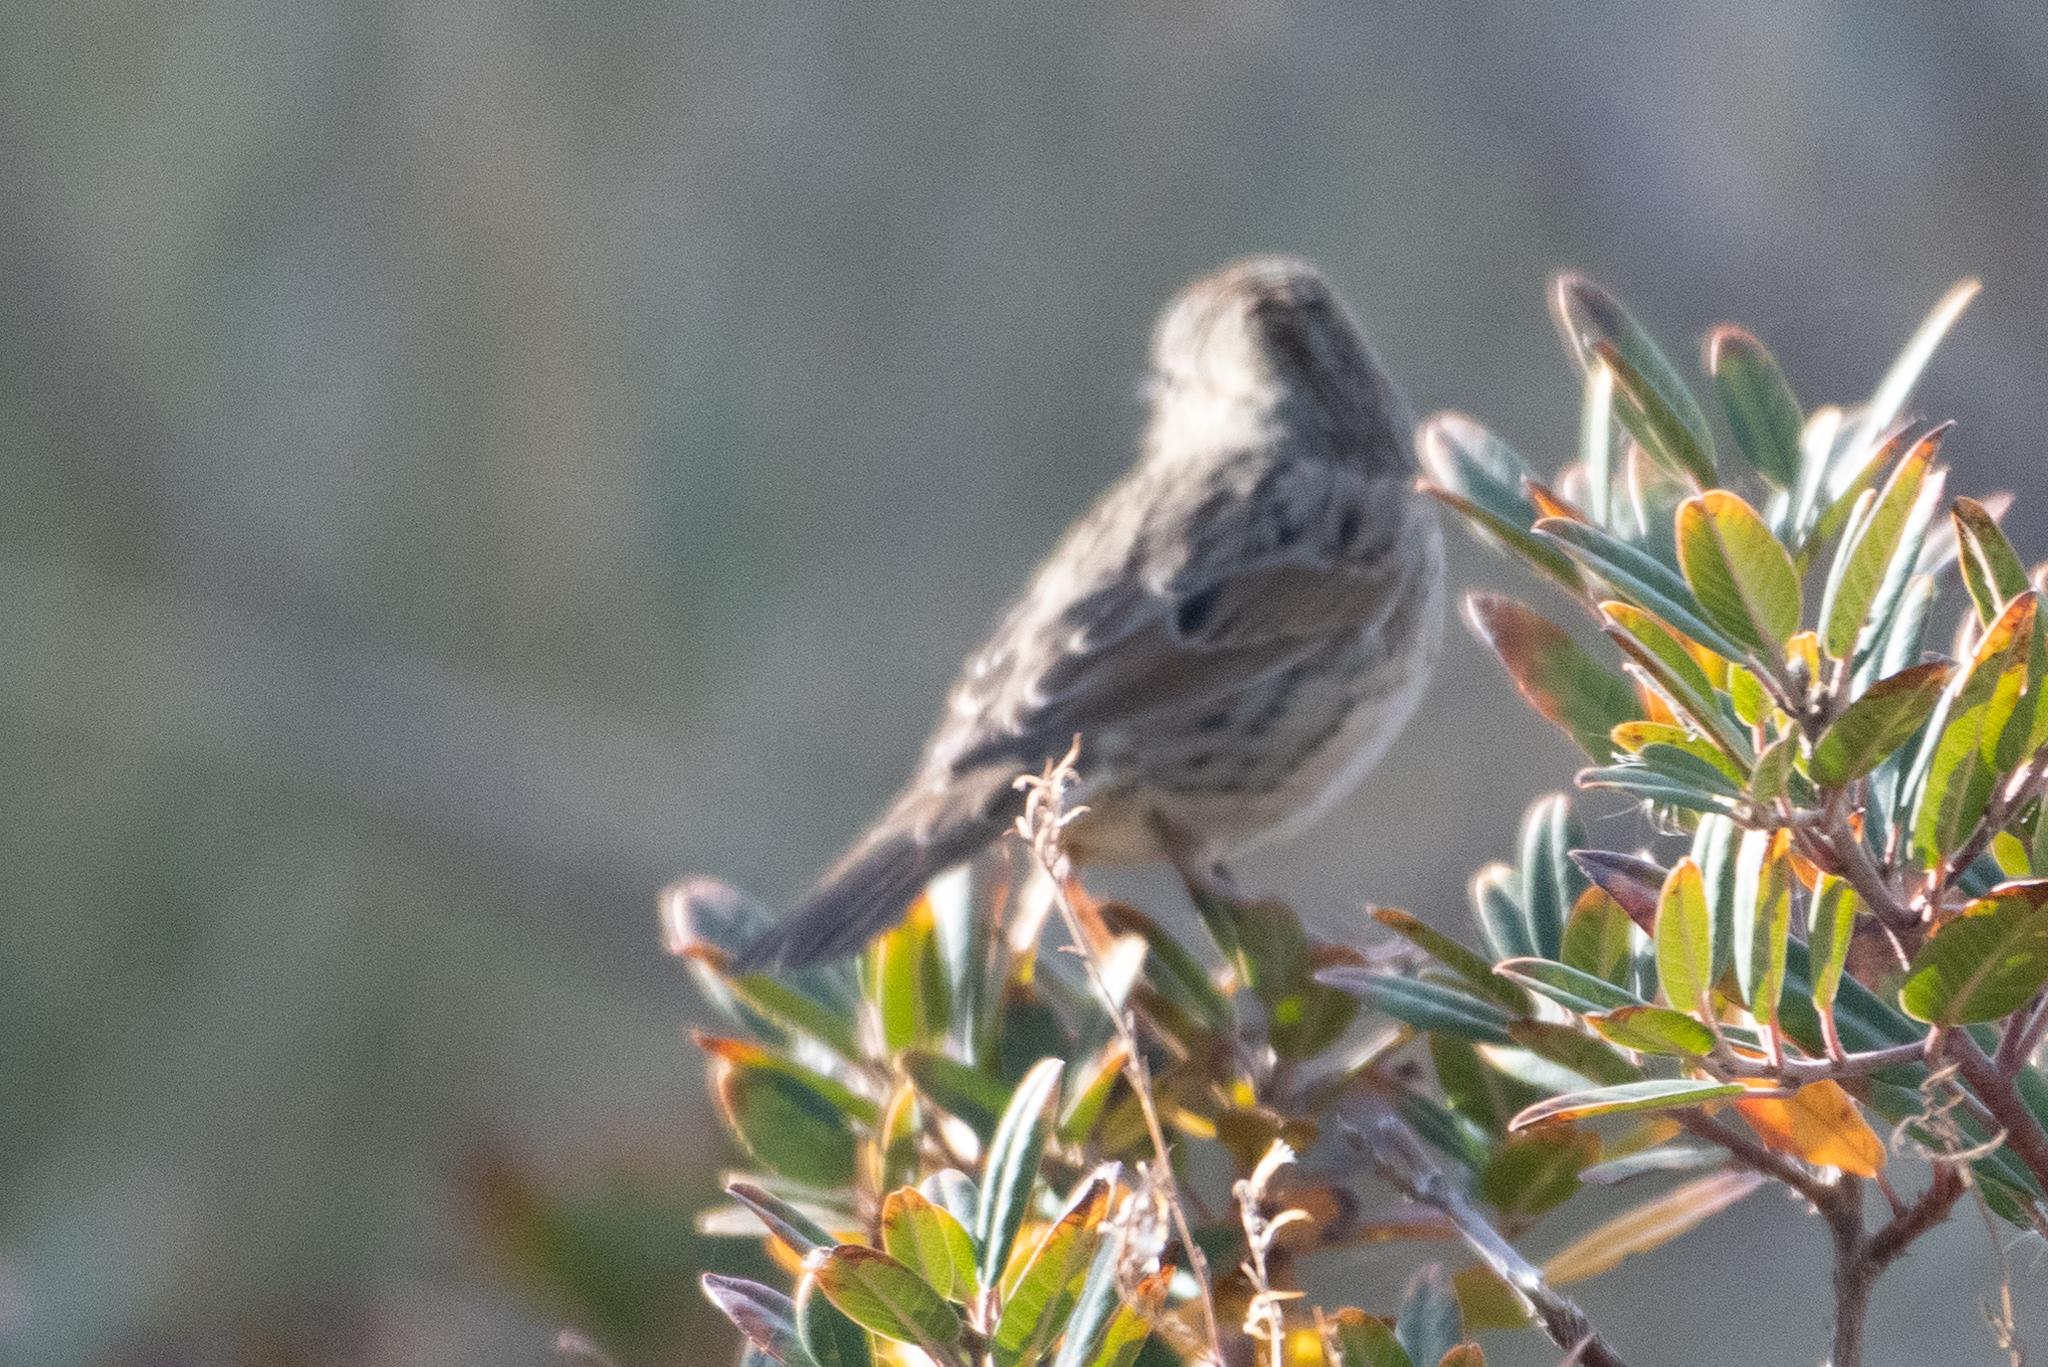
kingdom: Animalia
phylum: Chordata
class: Aves
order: Passeriformes
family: Passerellidae
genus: Melospiza
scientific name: Melospiza lincolnii
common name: Lincoln's sparrow
